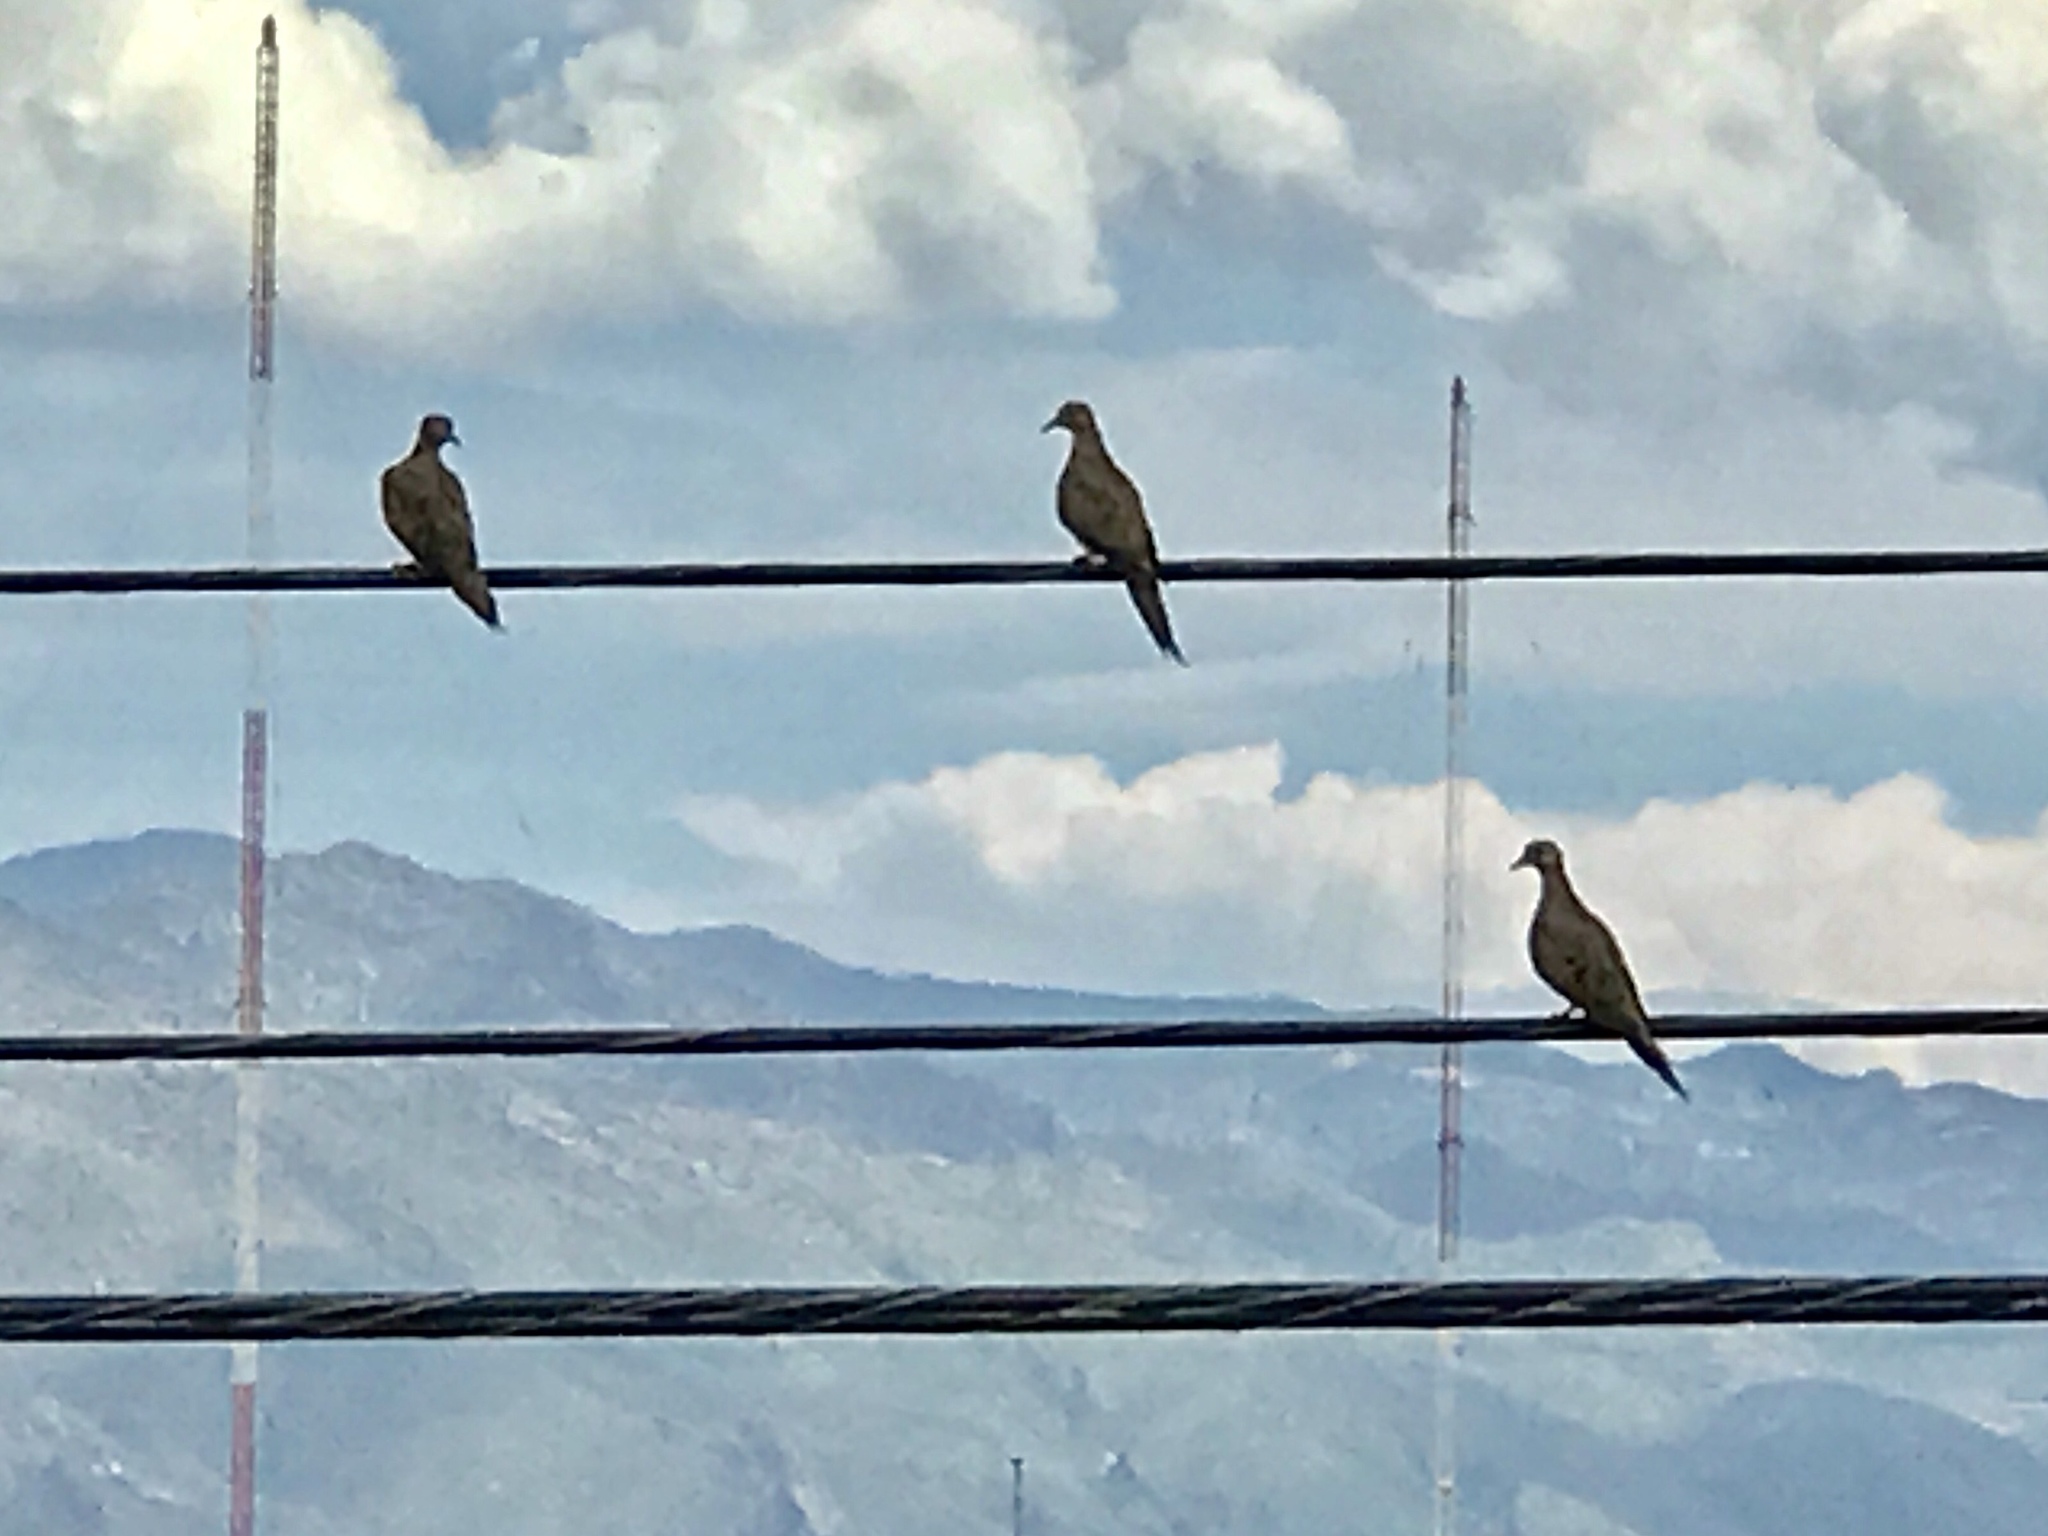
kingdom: Animalia
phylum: Chordata
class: Aves
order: Columbiformes
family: Columbidae
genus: Zenaida
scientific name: Zenaida macroura
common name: Mourning dove
